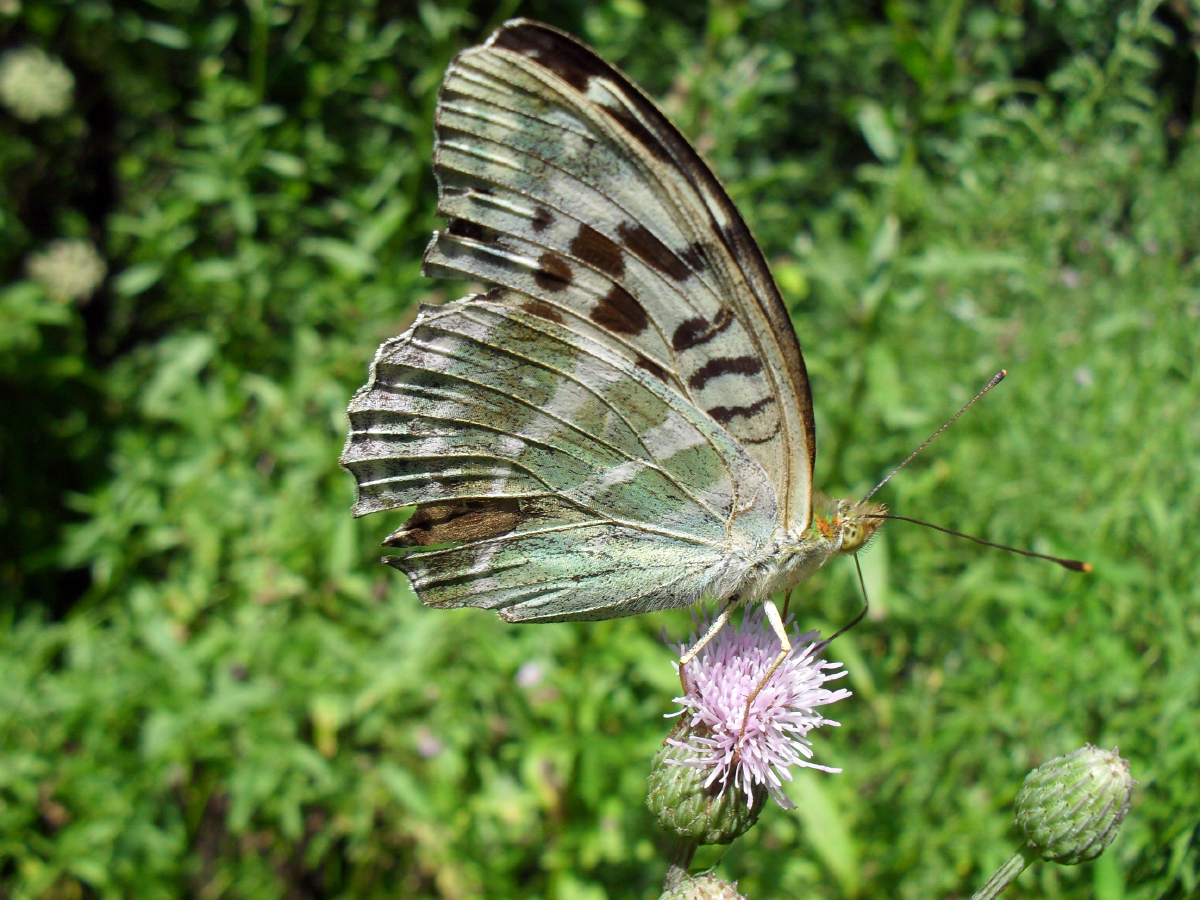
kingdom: Animalia
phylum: Arthropoda
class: Insecta
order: Lepidoptera
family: Nymphalidae
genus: Argynnis
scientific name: Argynnis paphia
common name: Silver-washed fritillary
